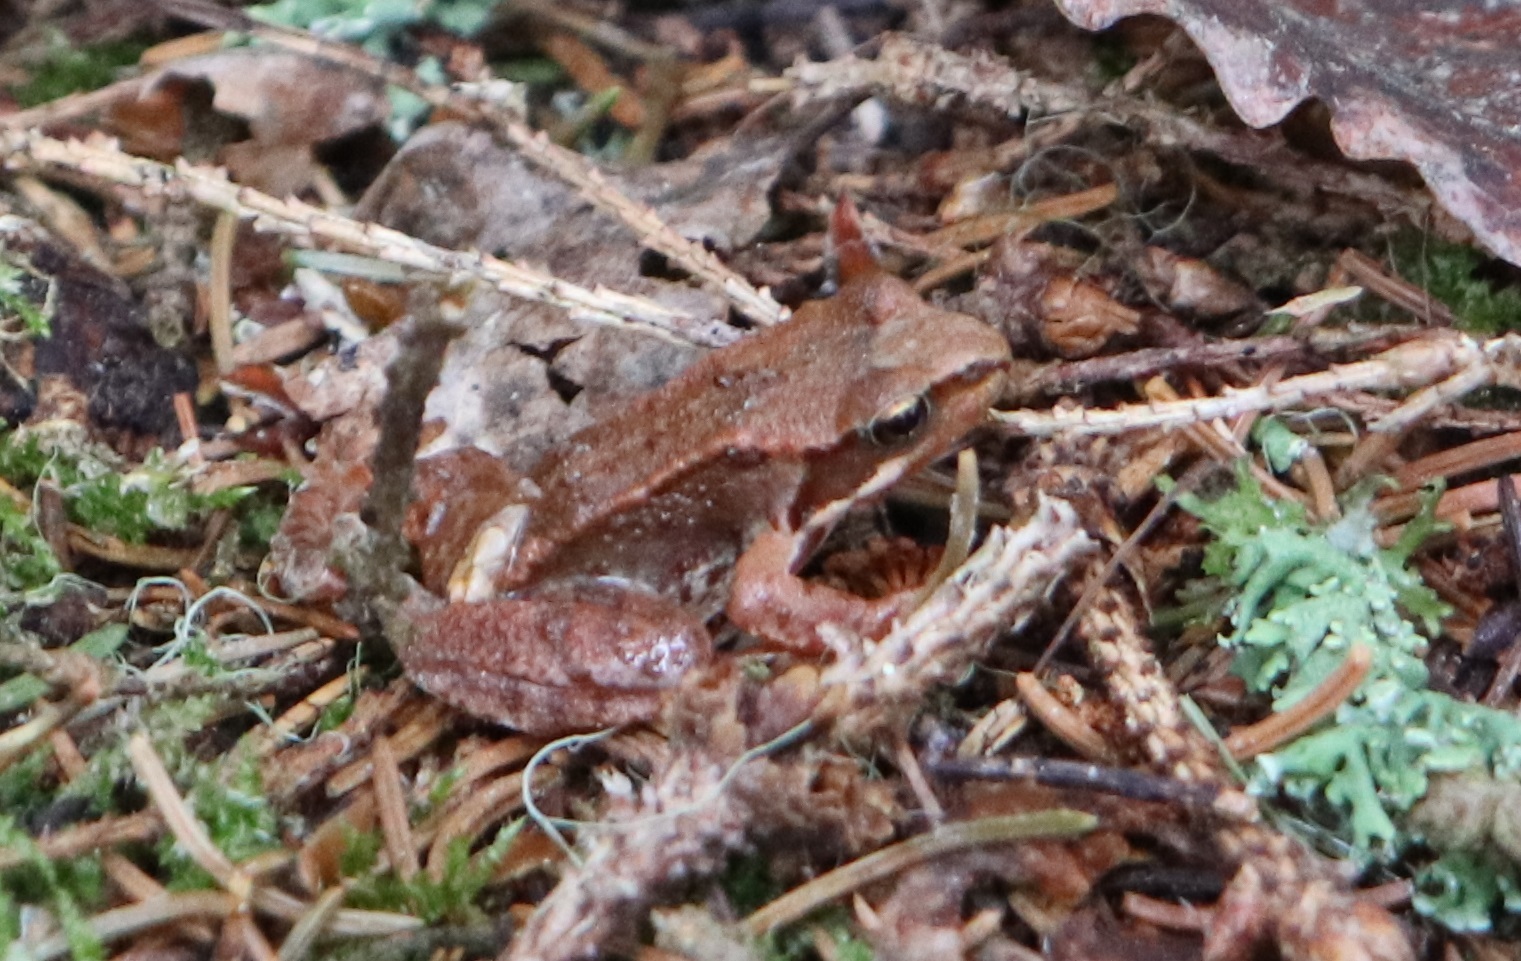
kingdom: Animalia
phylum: Chordata
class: Amphibia
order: Anura
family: Ranidae
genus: Rana
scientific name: Rana temporaria
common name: Common frog
